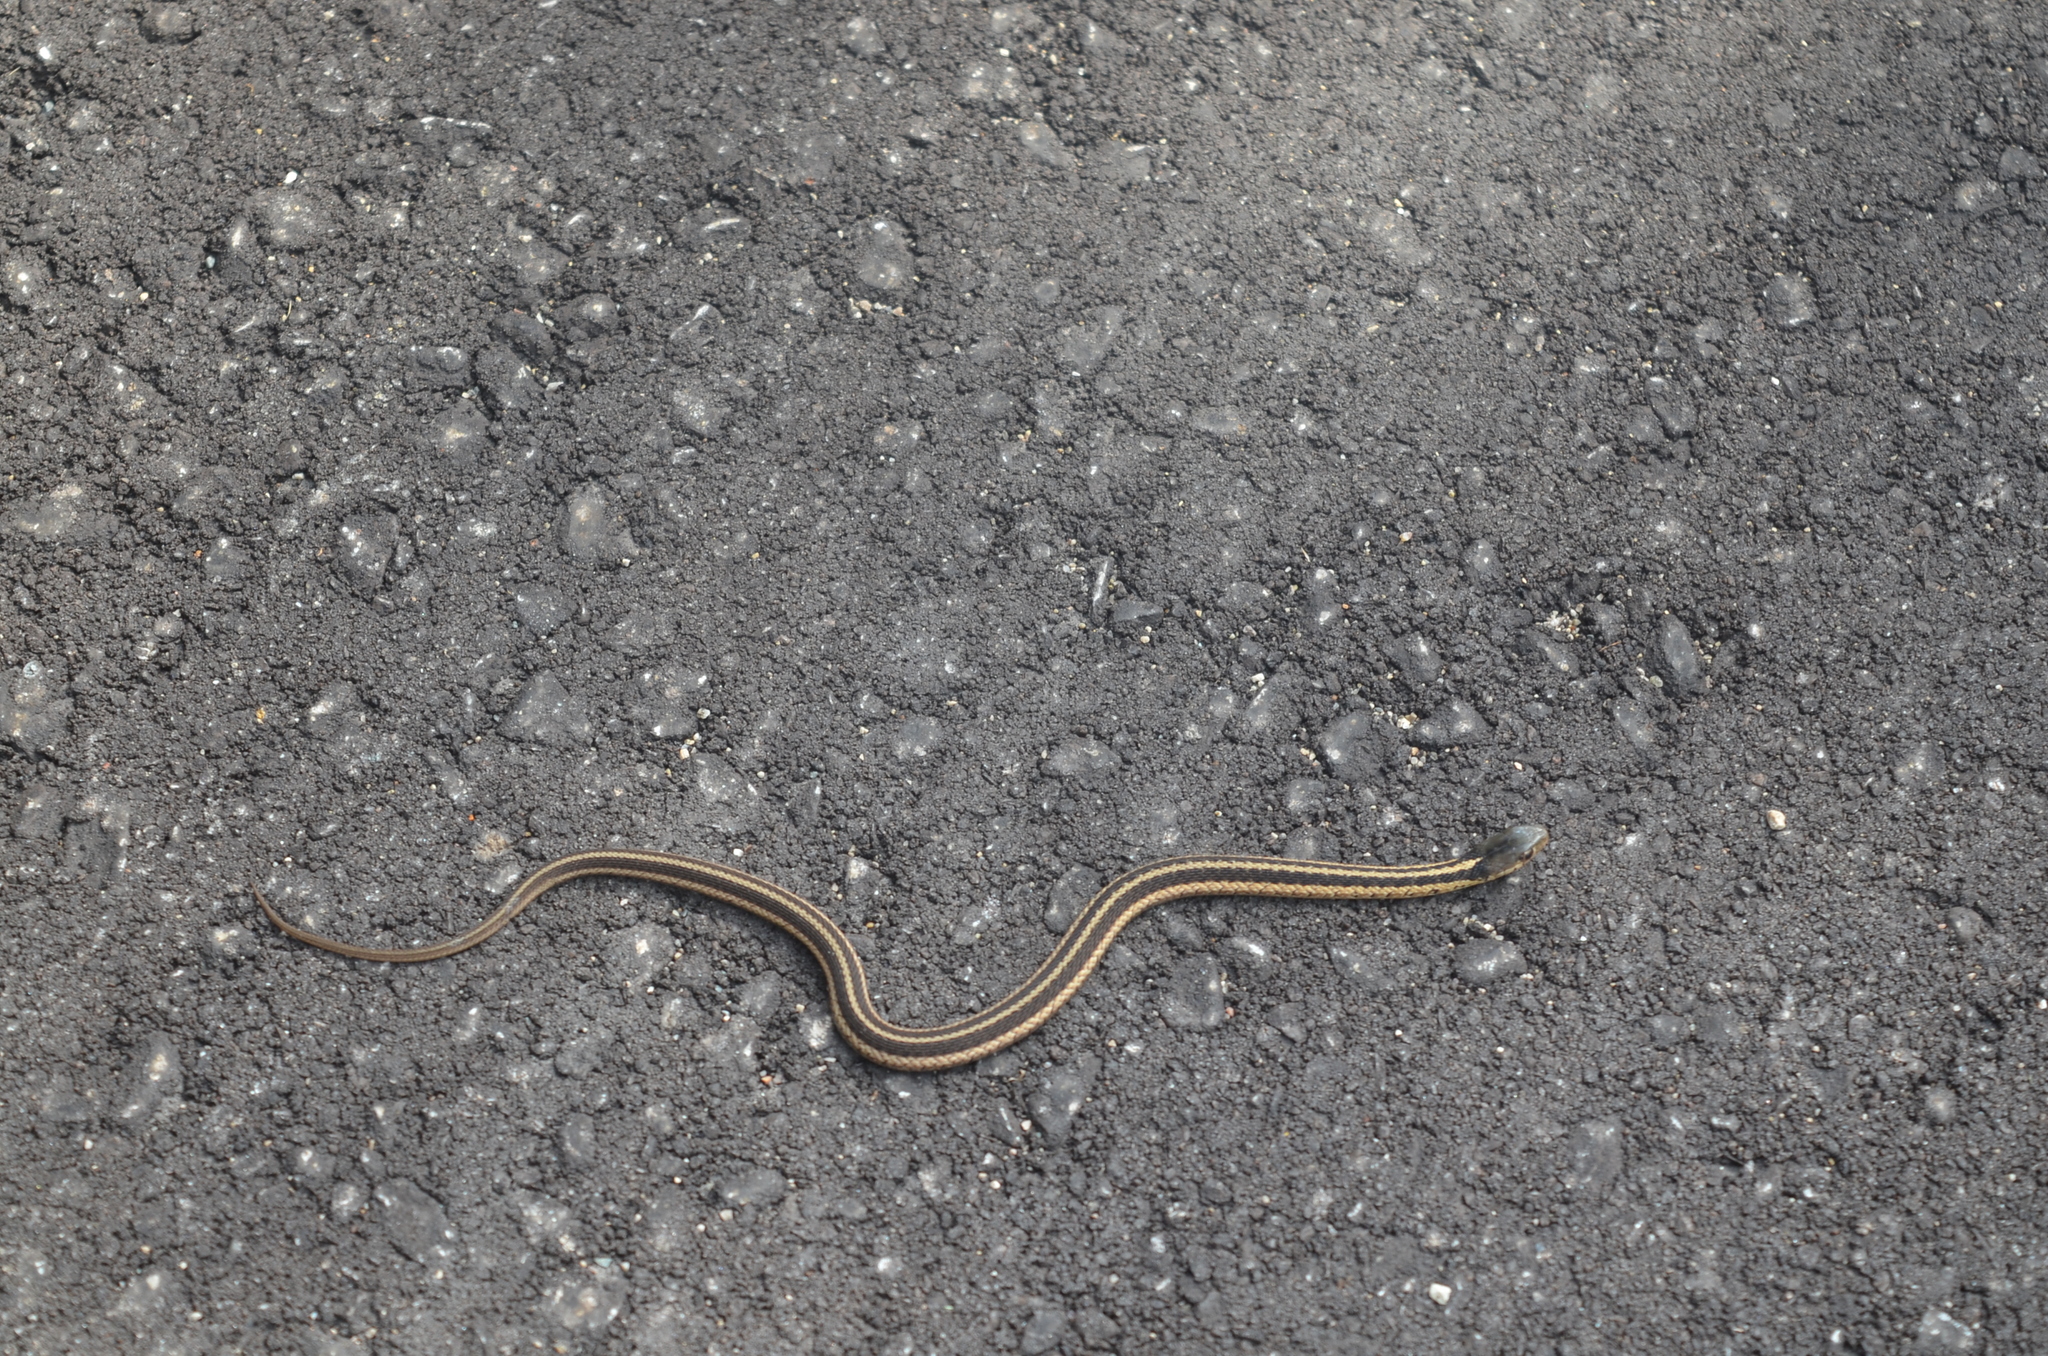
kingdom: Animalia
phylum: Chordata
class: Squamata
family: Colubridae
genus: Thamnophis
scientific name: Thamnophis sirtalis
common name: Common garter snake
